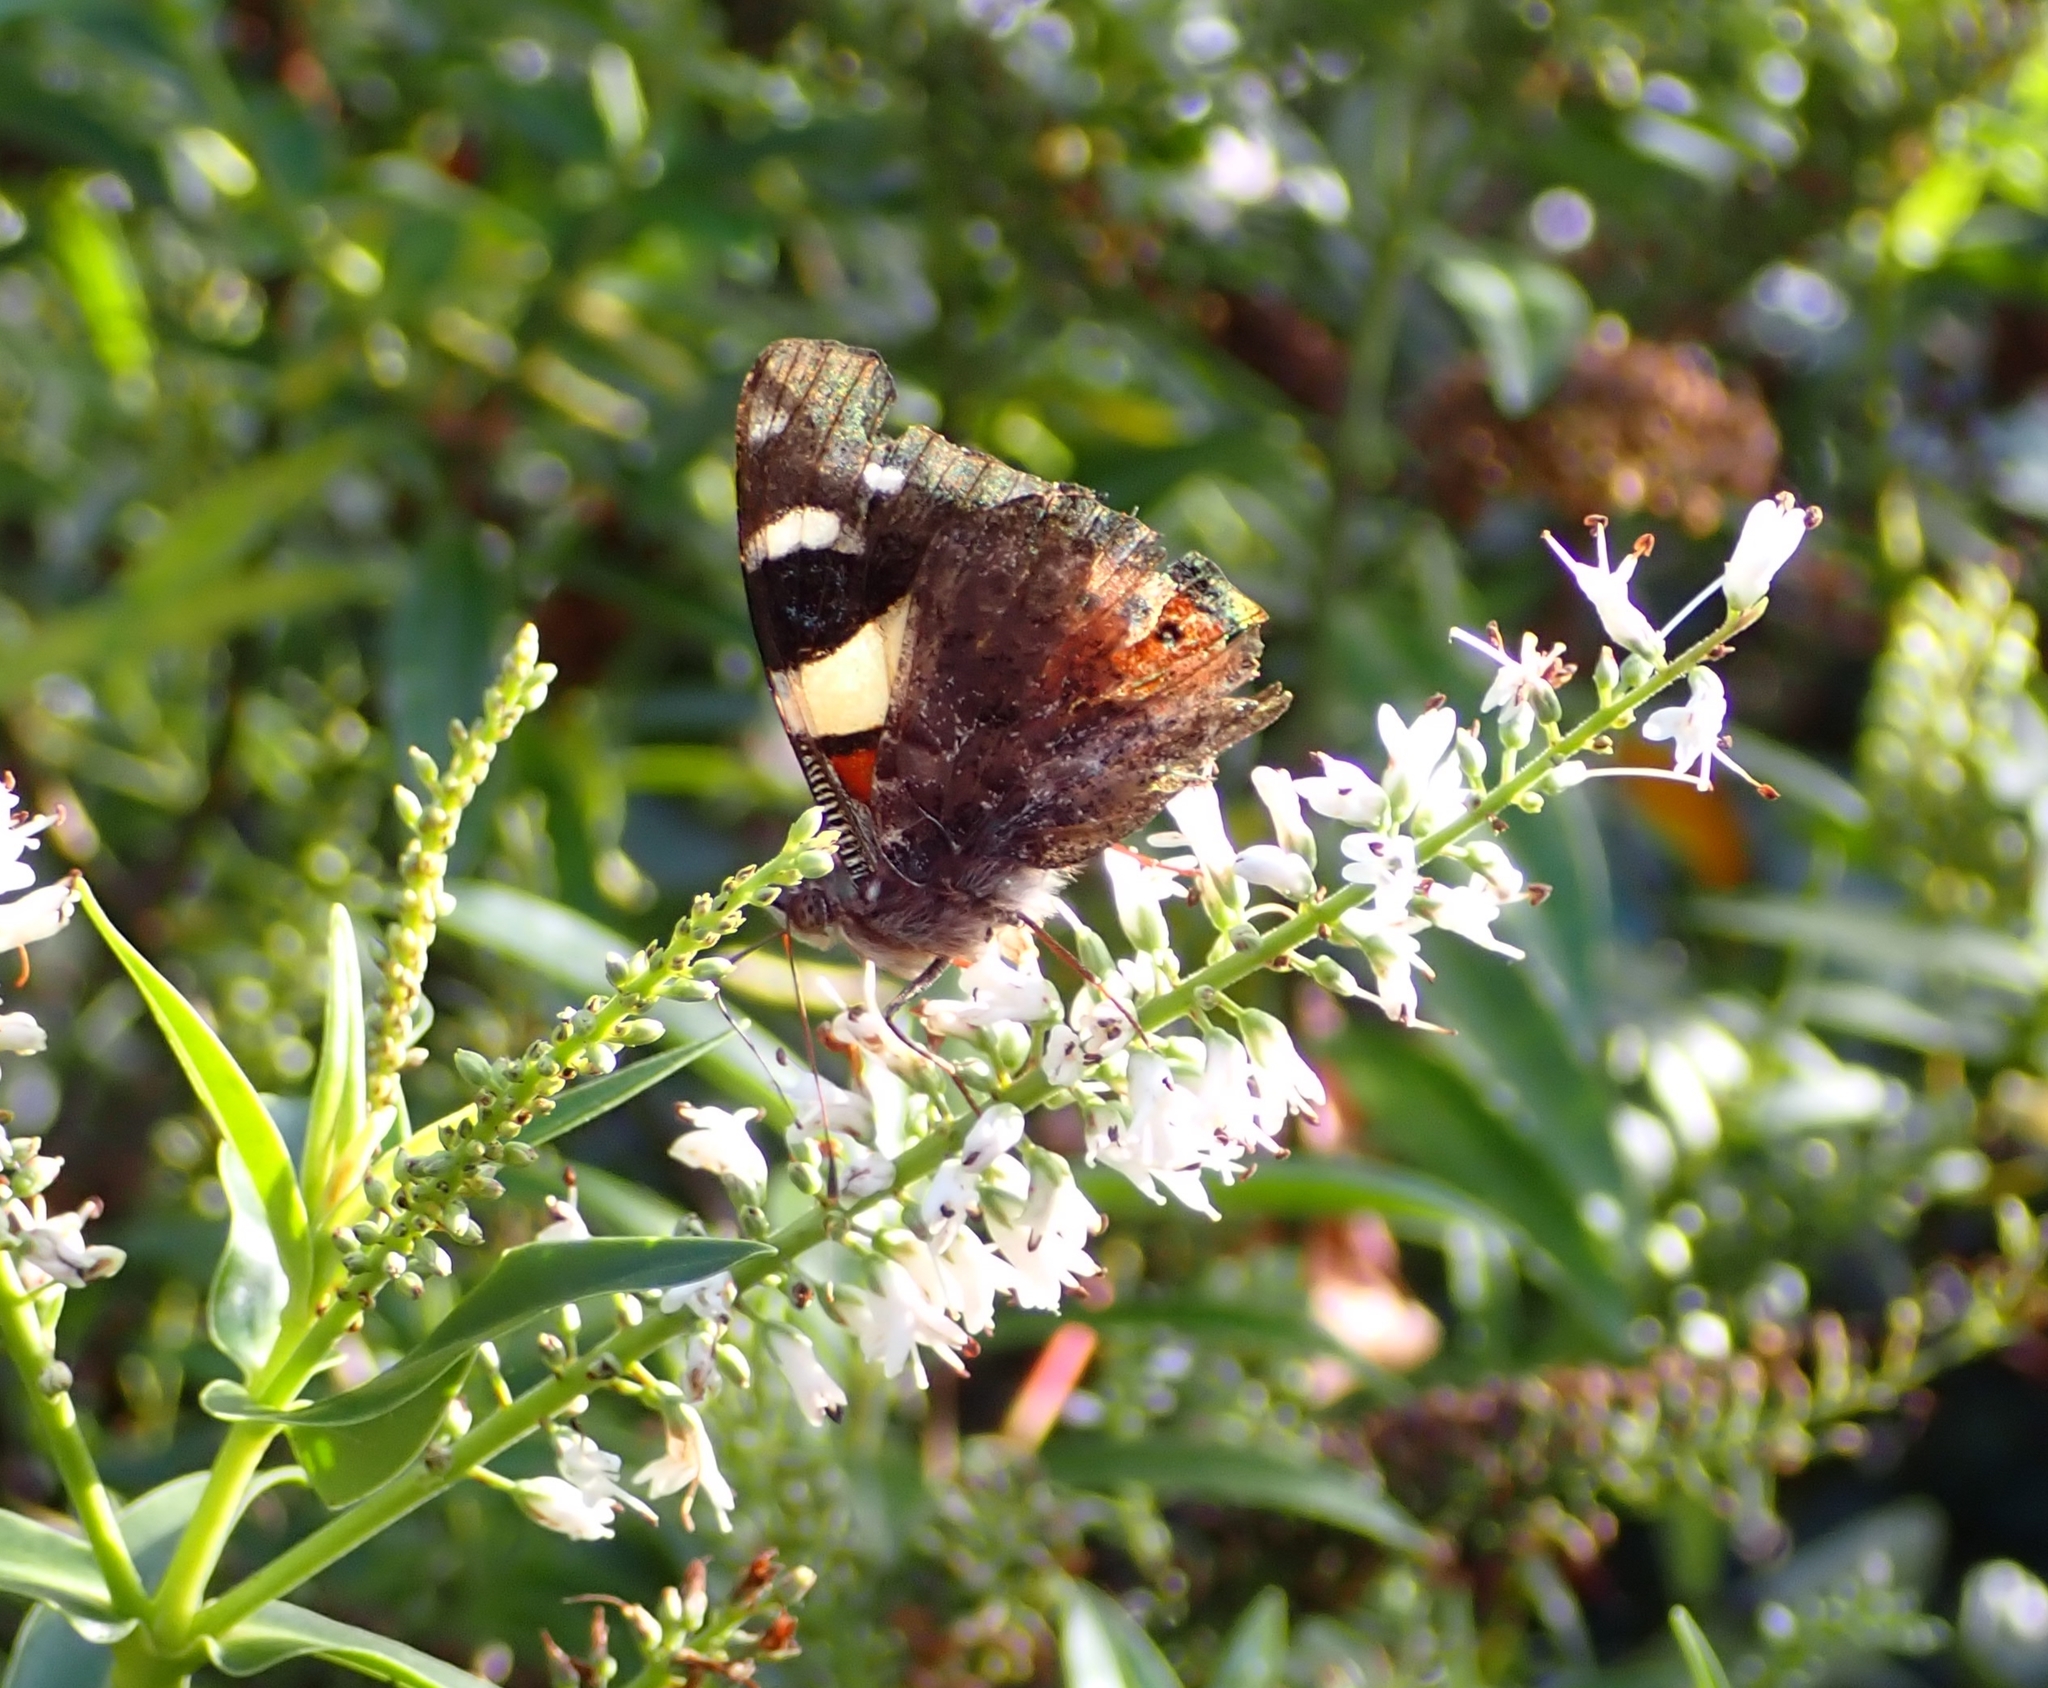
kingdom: Animalia
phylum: Arthropoda
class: Insecta
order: Lepidoptera
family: Nymphalidae
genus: Vanessa
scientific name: Vanessa itea
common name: Yellow admiral
